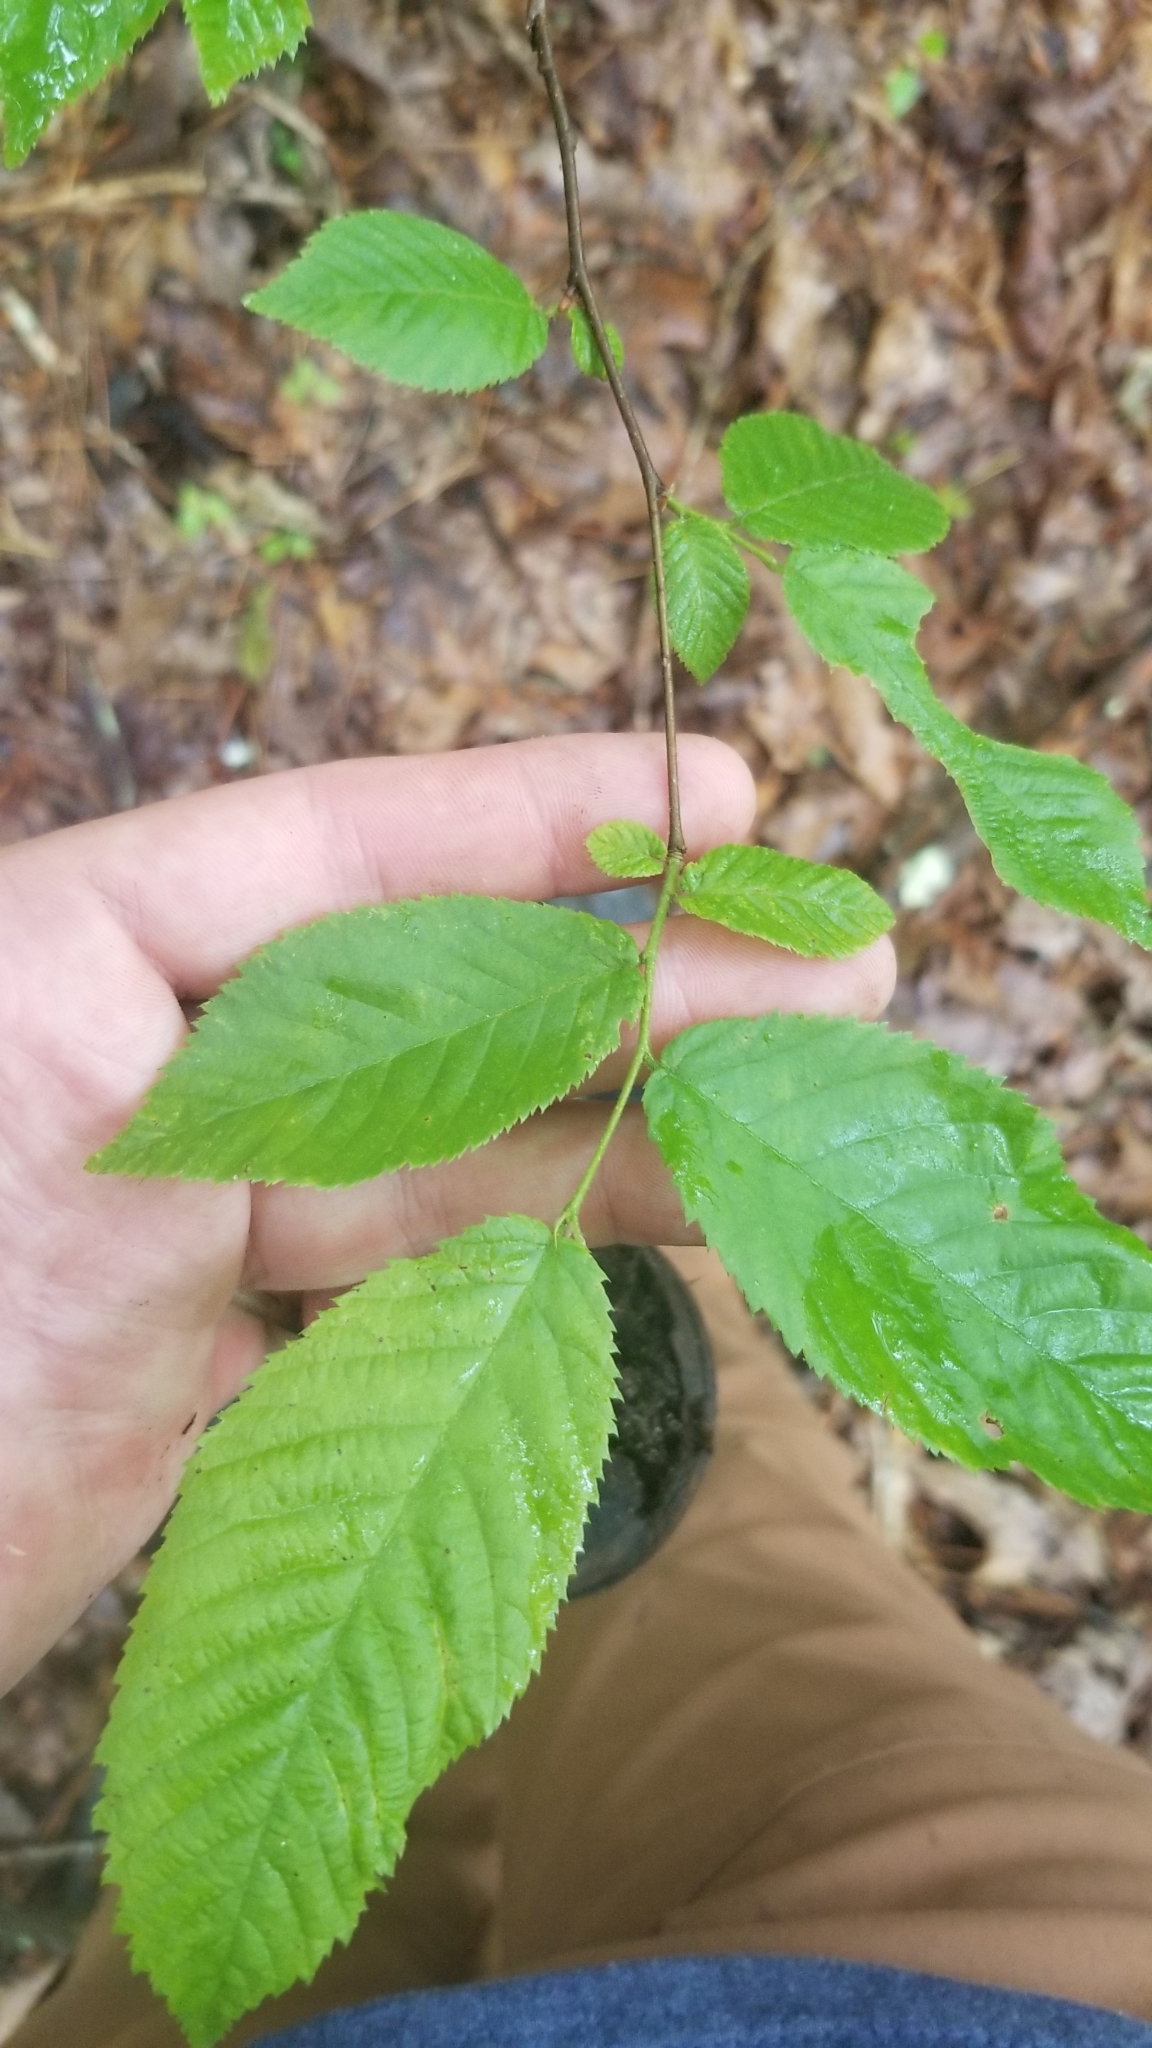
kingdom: Plantae
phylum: Tracheophyta
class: Magnoliopsida
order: Fagales
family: Betulaceae
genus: Ostrya
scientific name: Ostrya virginiana
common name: Ironwood
